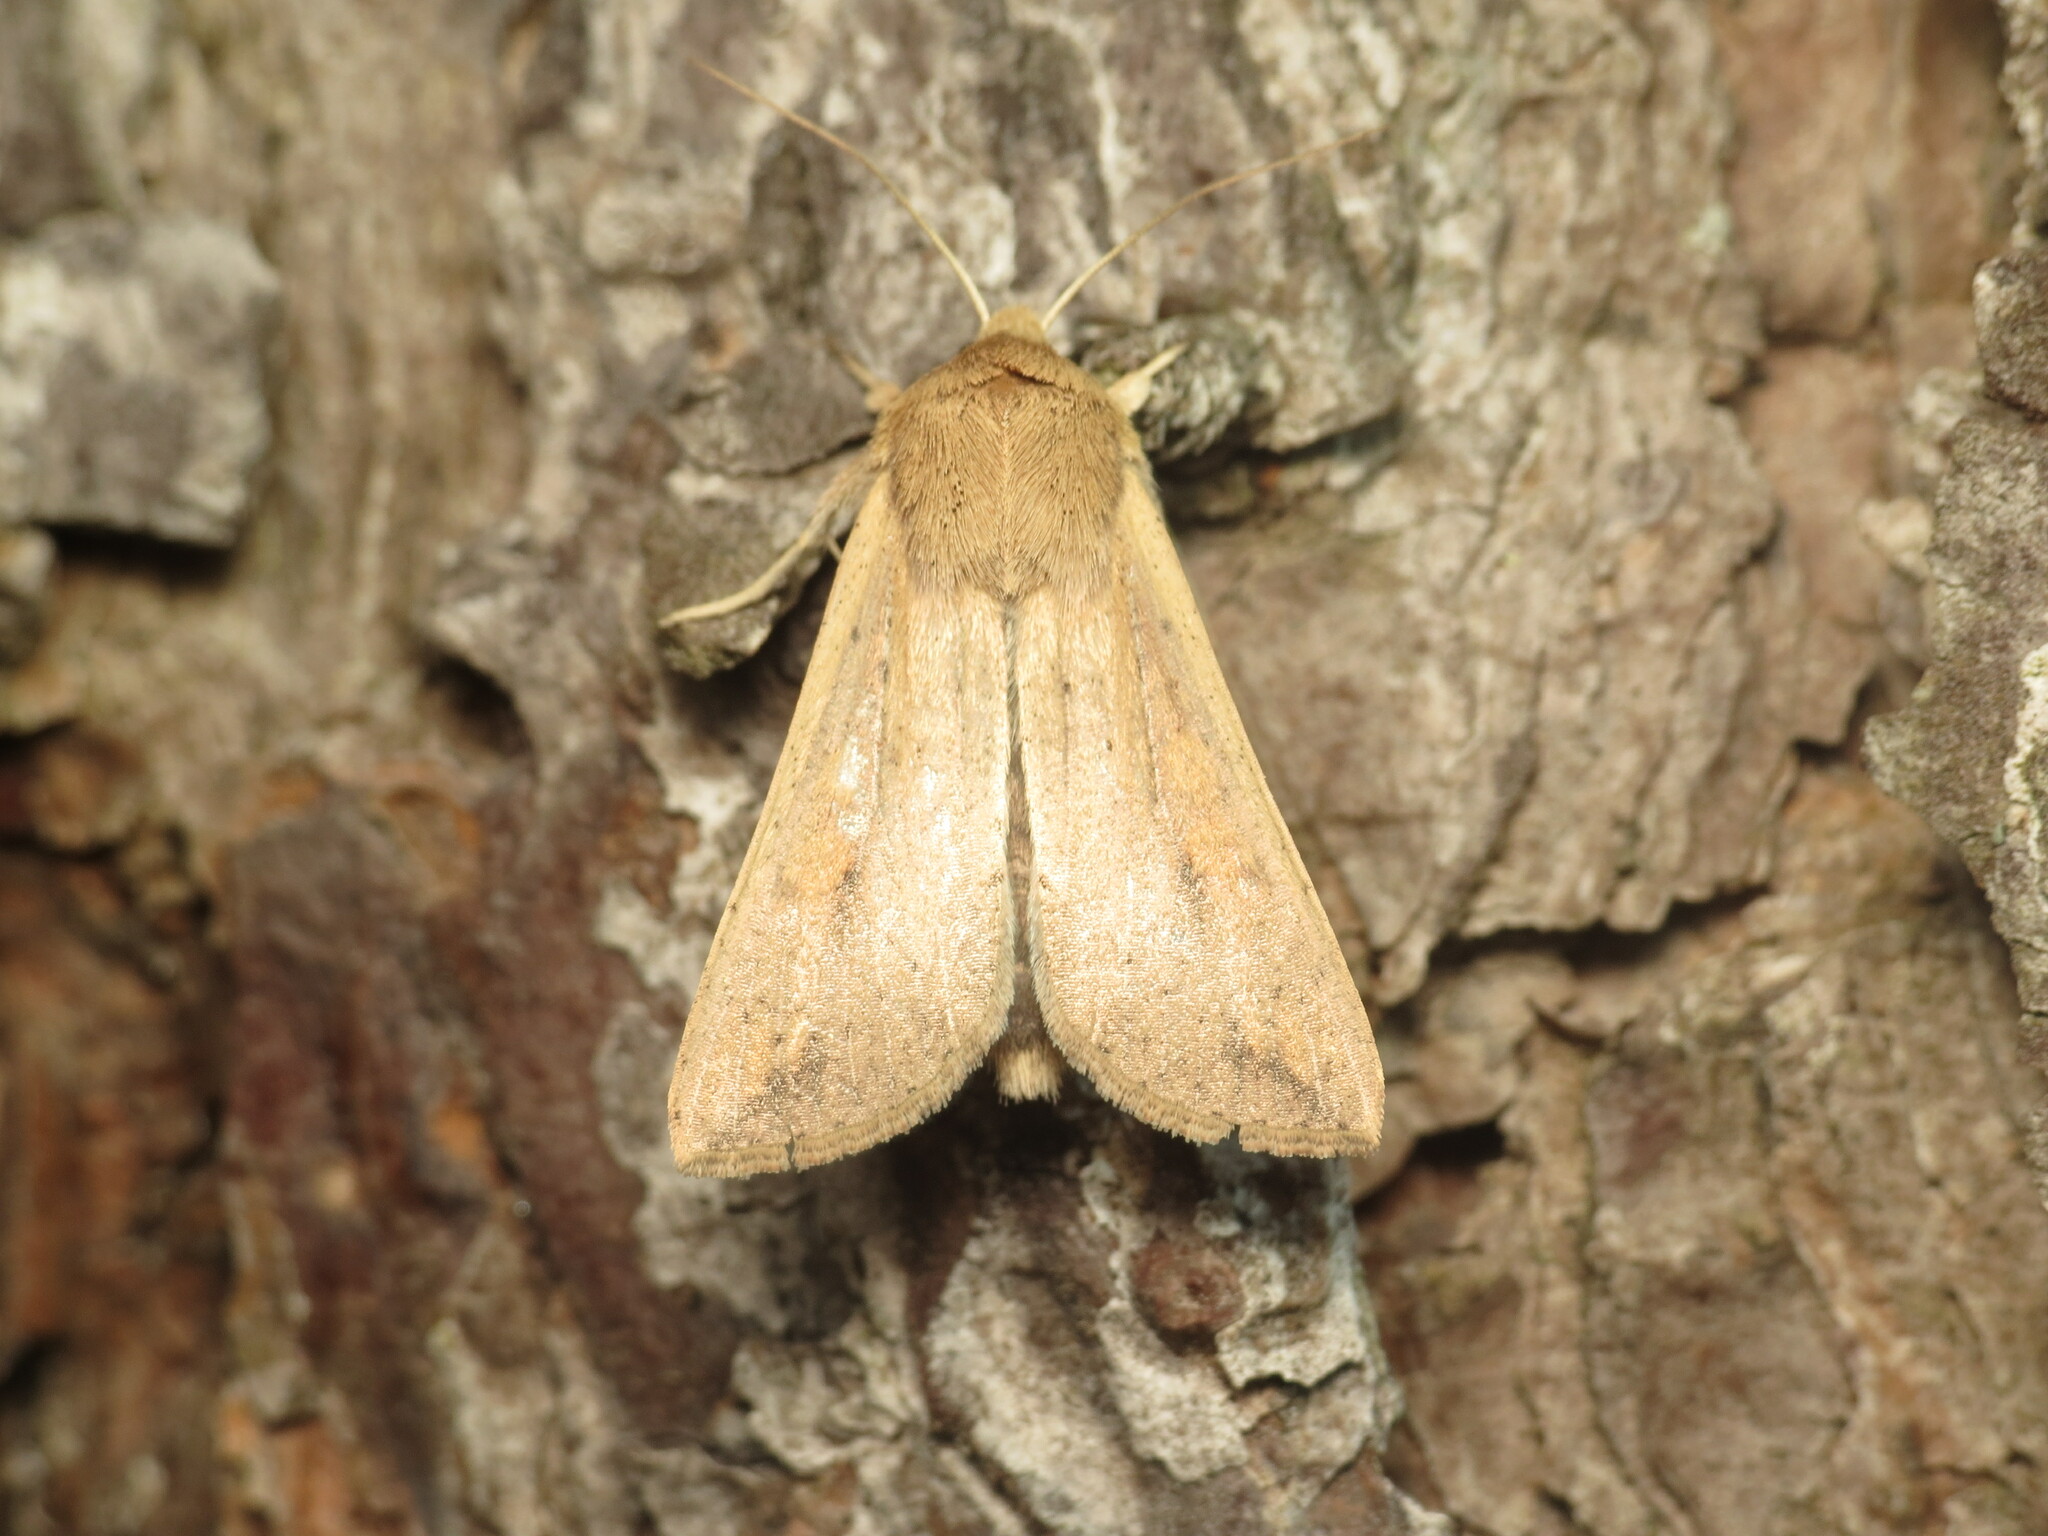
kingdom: Animalia
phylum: Arthropoda
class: Insecta
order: Lepidoptera
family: Noctuidae
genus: Mythimna
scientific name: Mythimna unipuncta
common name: White-speck
